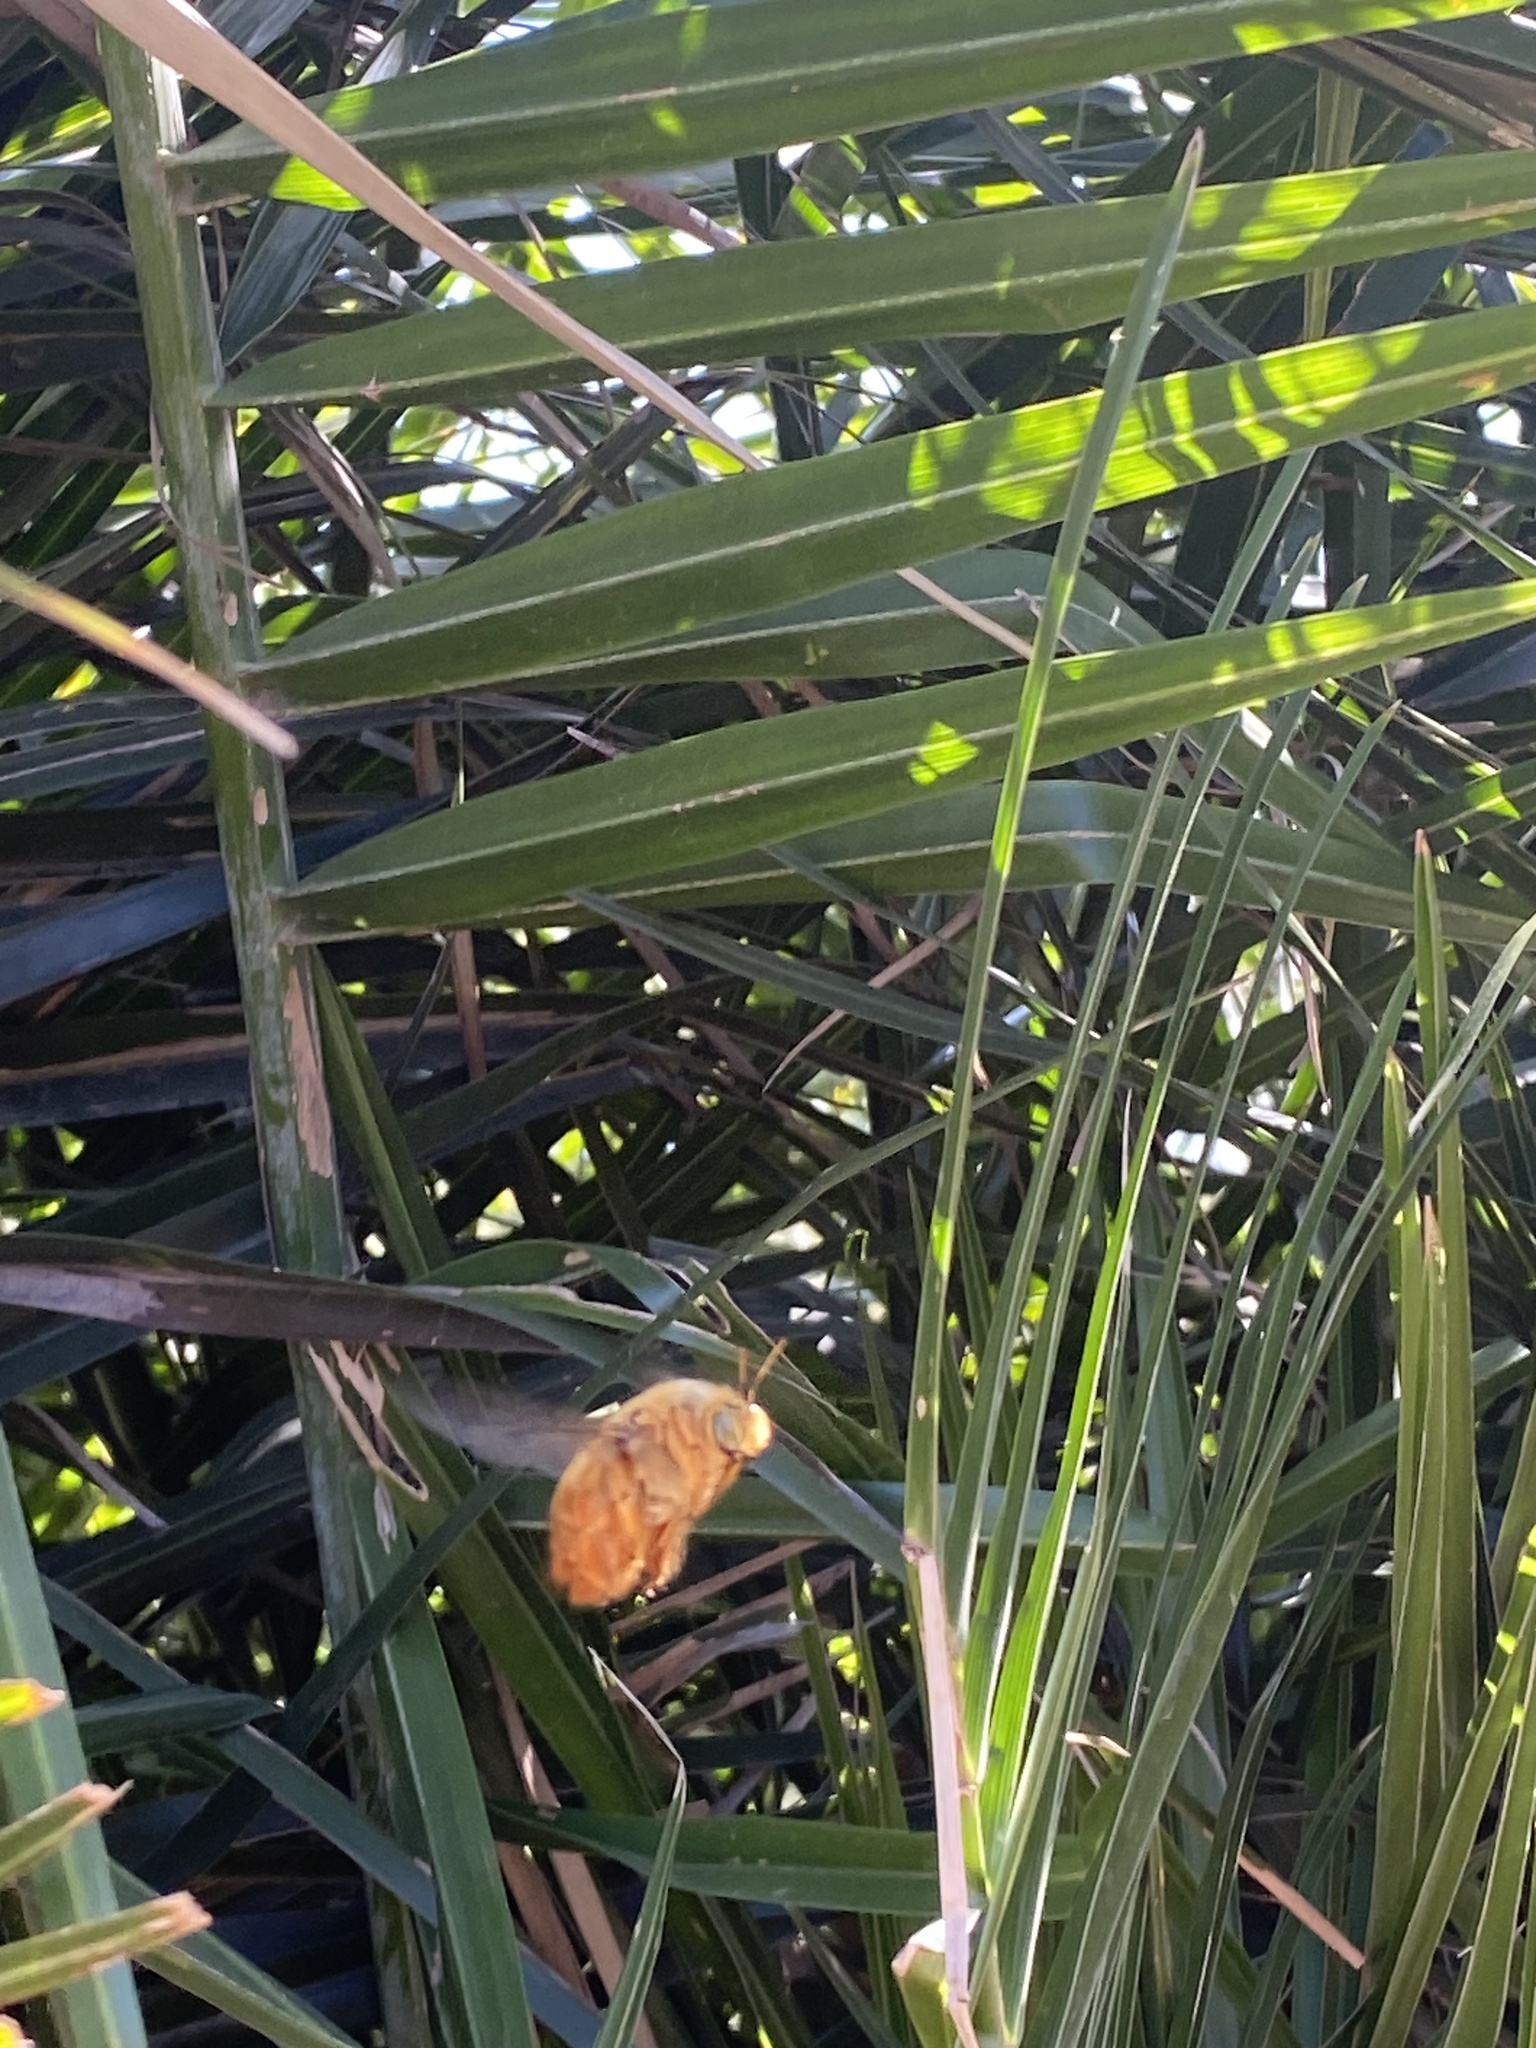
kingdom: Animalia
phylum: Arthropoda
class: Insecta
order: Hymenoptera
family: Apidae
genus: Xylocopa
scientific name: Xylocopa augusti
